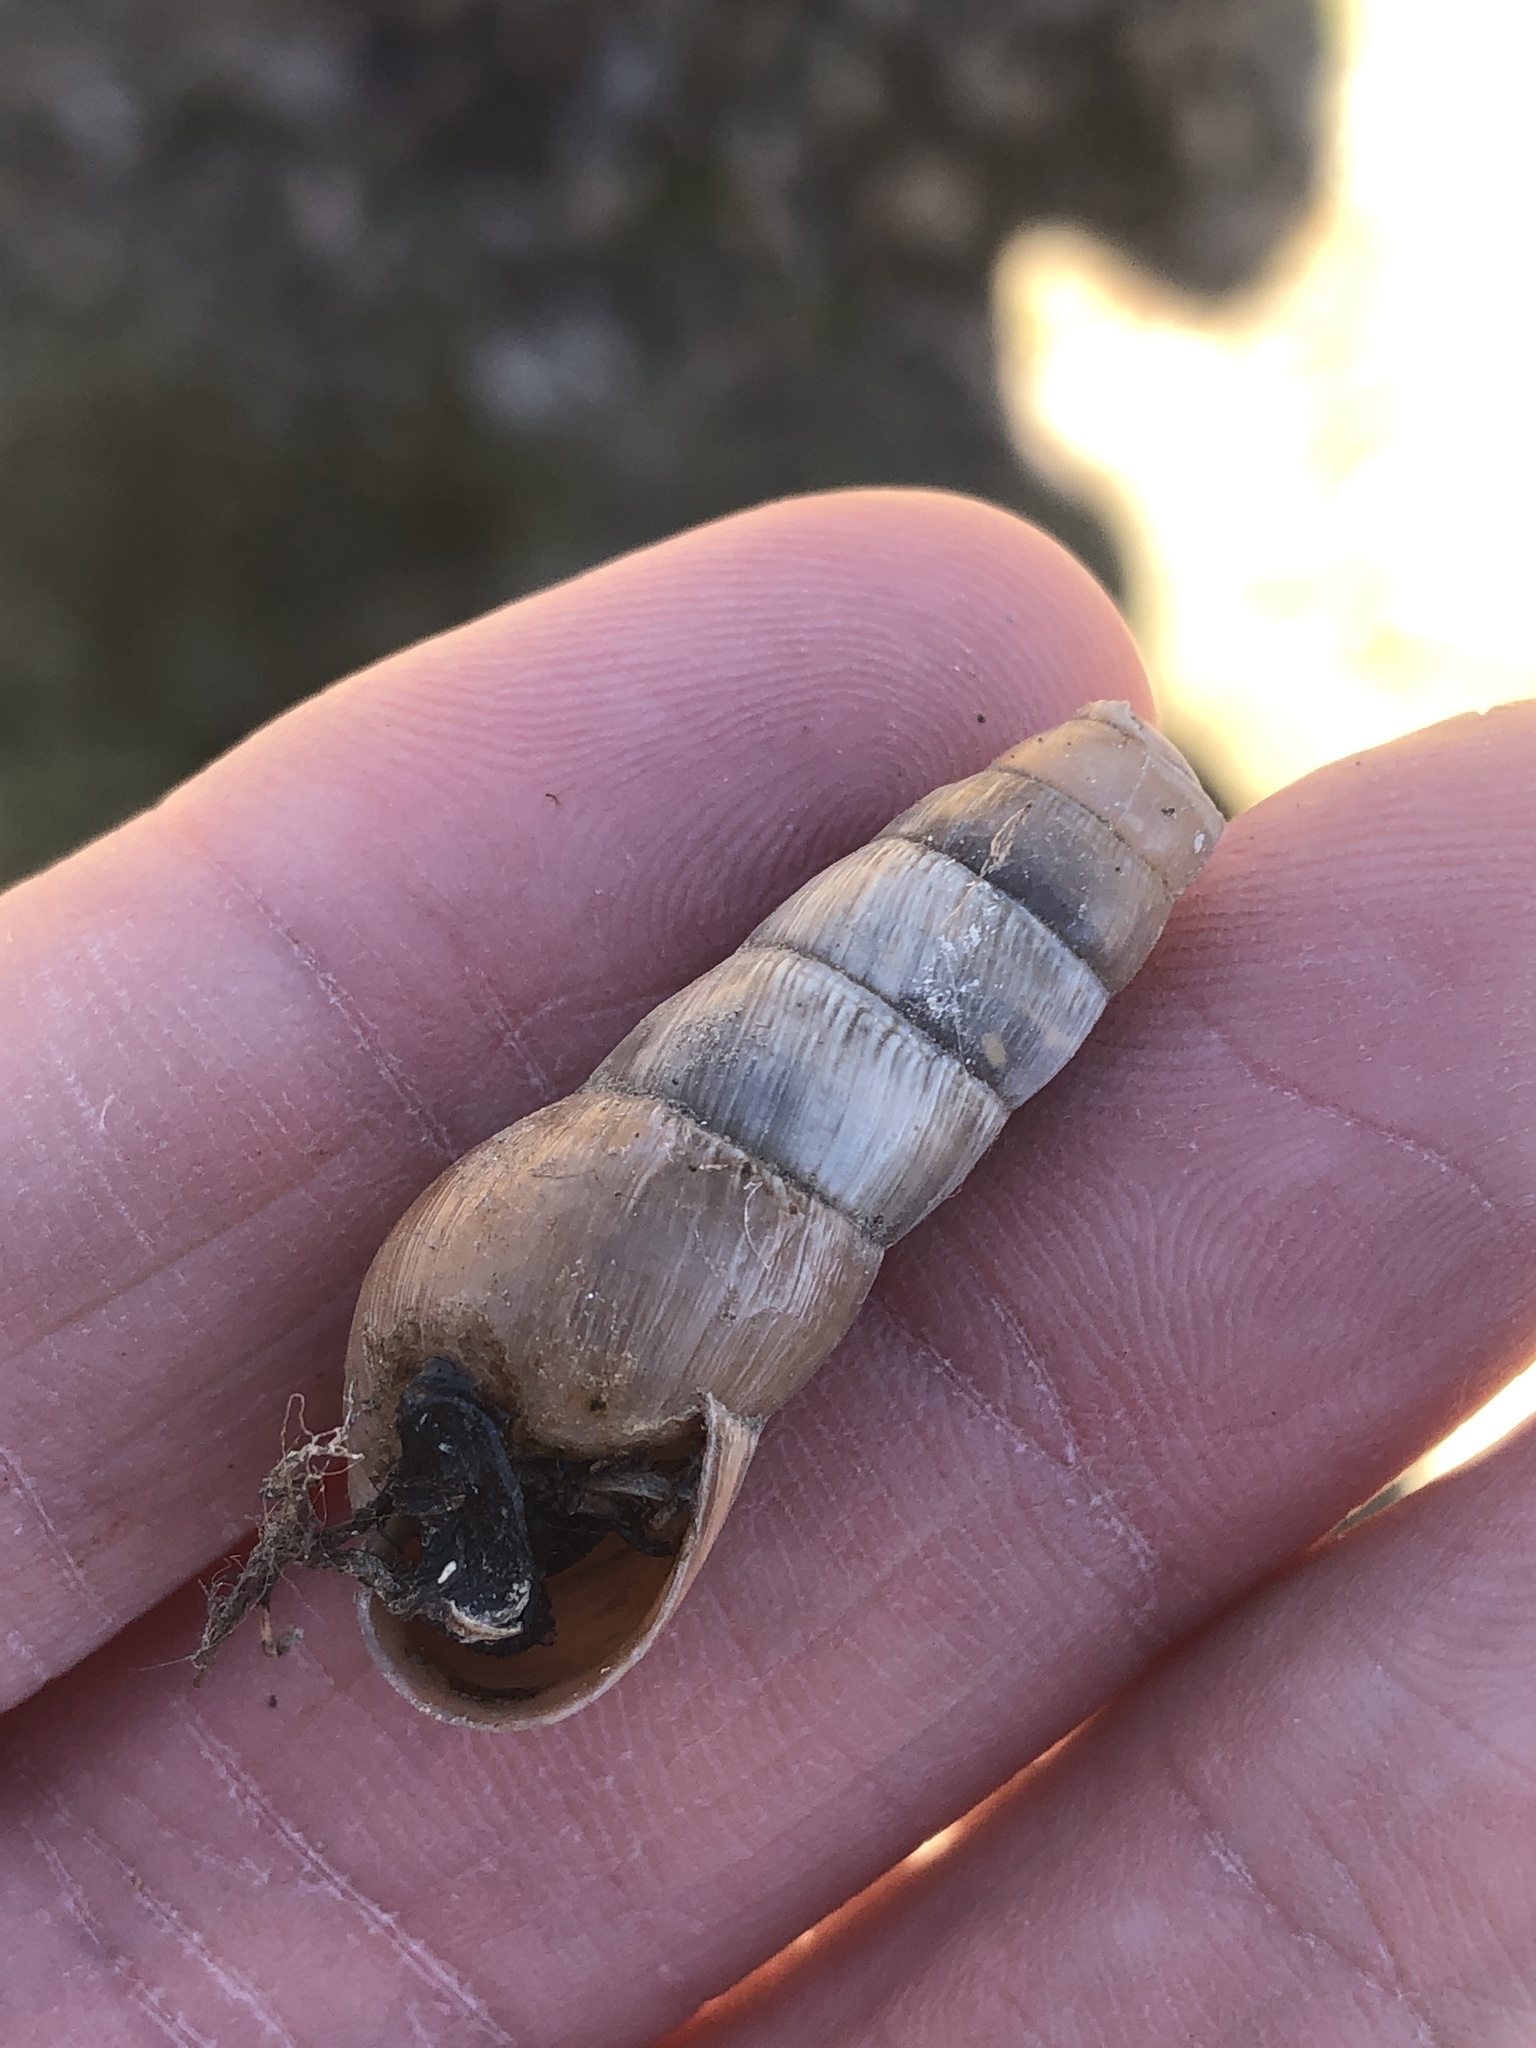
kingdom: Animalia
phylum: Mollusca
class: Gastropoda
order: Stylommatophora
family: Achatinidae
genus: Rumina
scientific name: Rumina decollata
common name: Decollate snail
